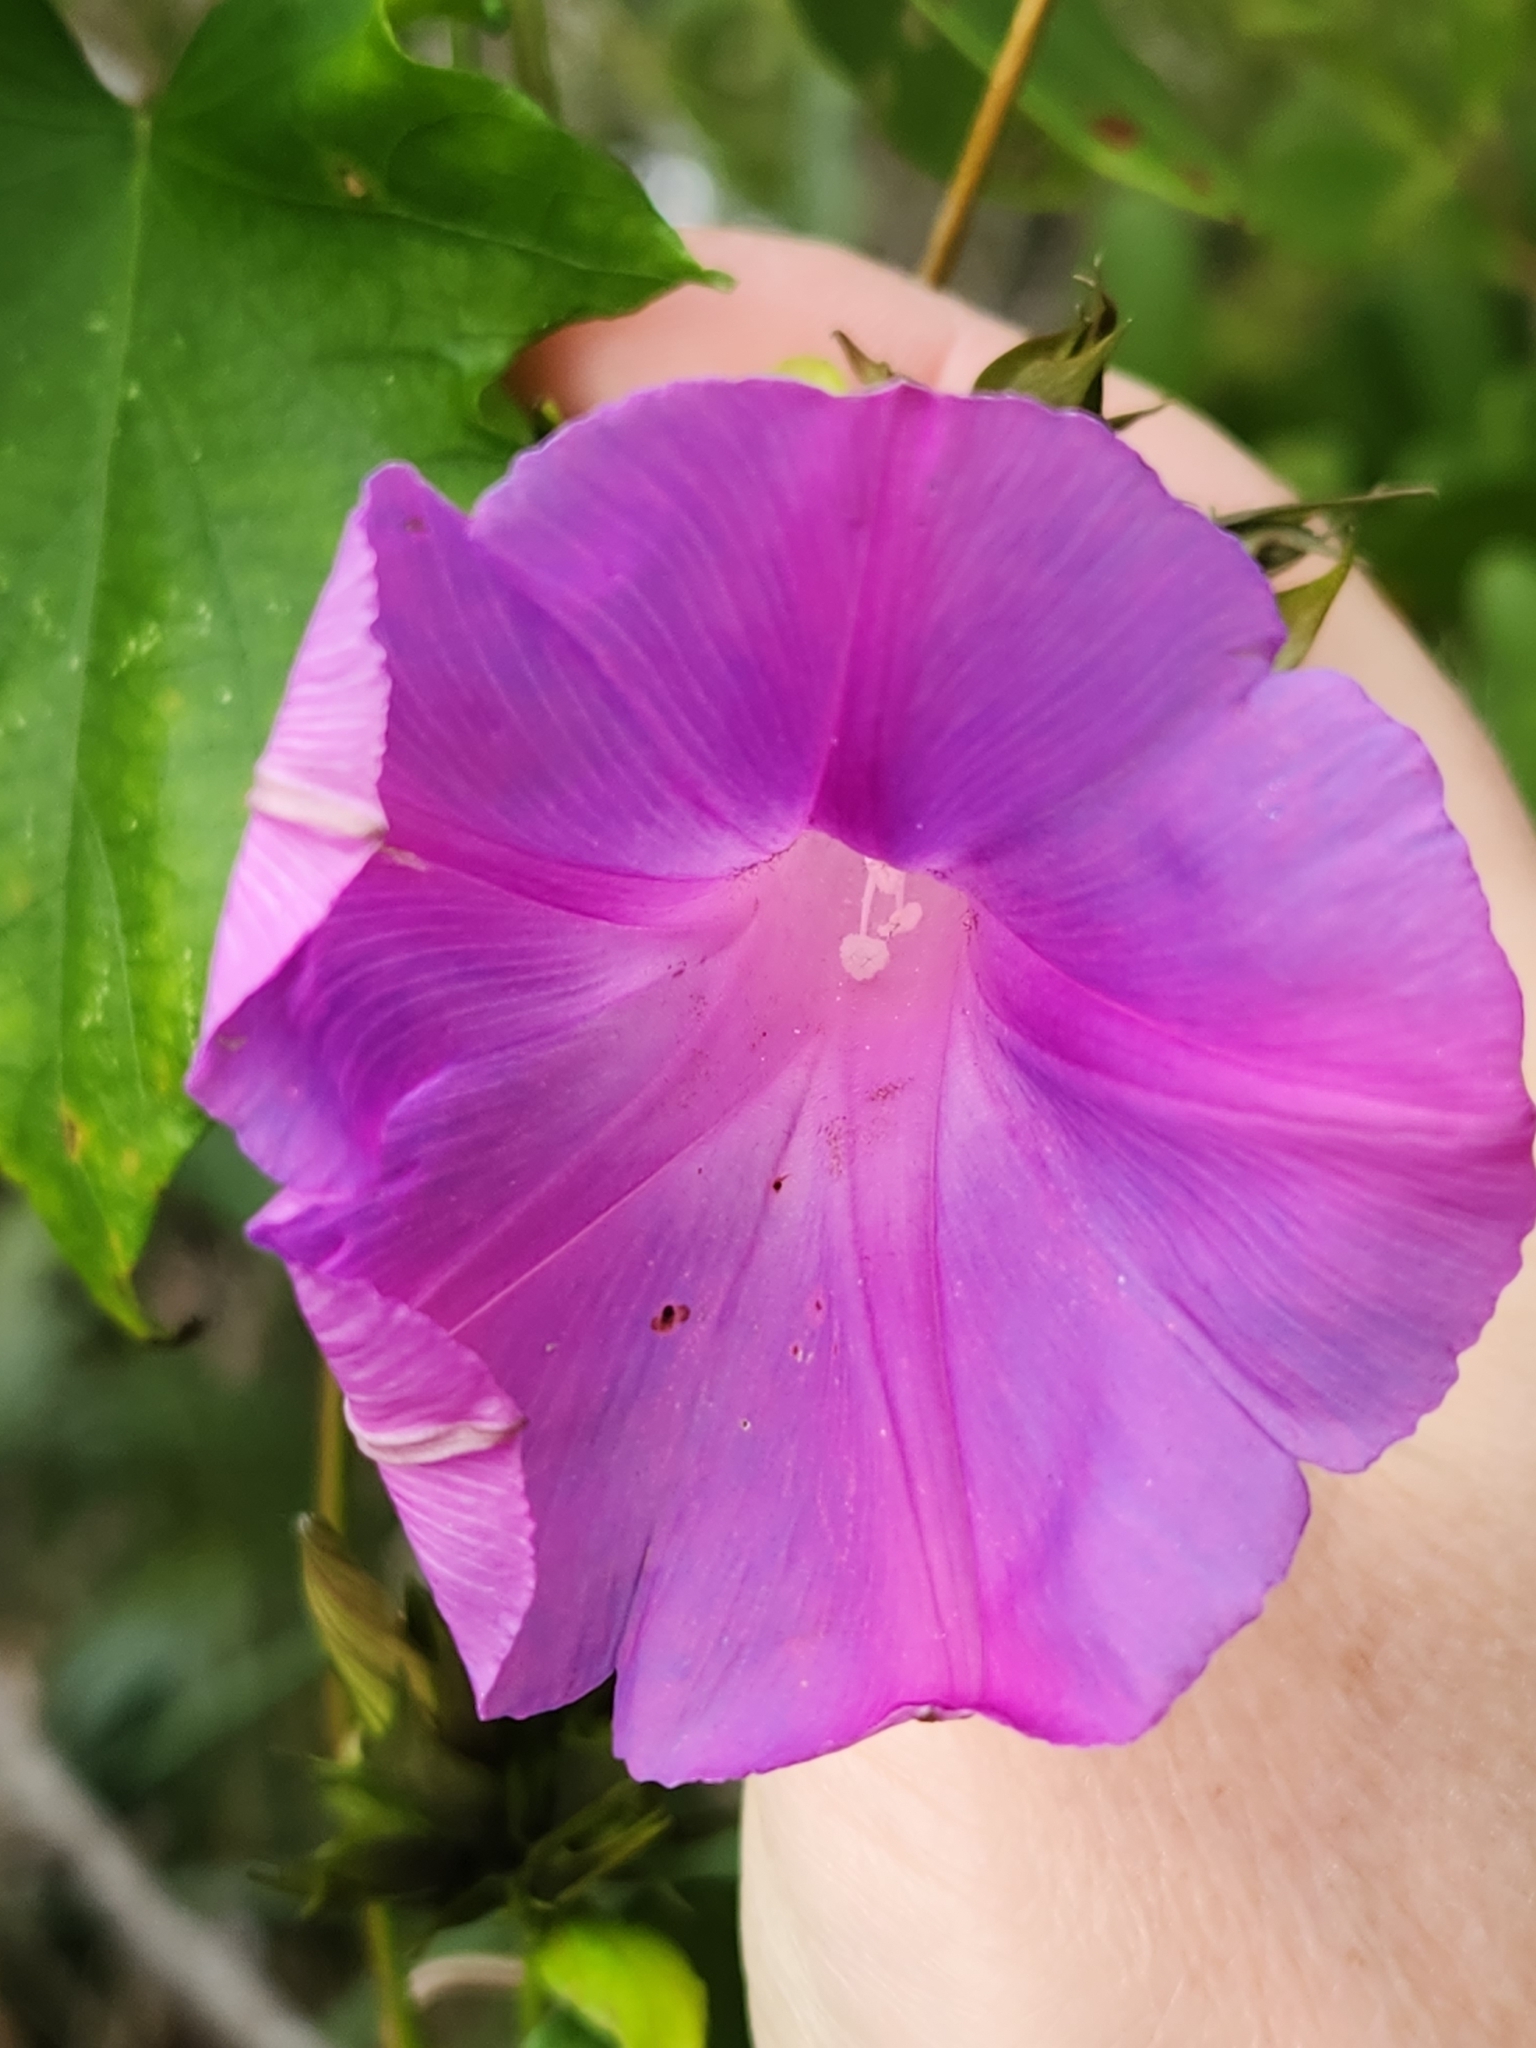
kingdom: Plantae
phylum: Tracheophyta
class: Magnoliopsida
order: Solanales
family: Convolvulaceae
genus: Ipomoea
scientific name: Ipomoea indica
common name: Blue dawnflower
